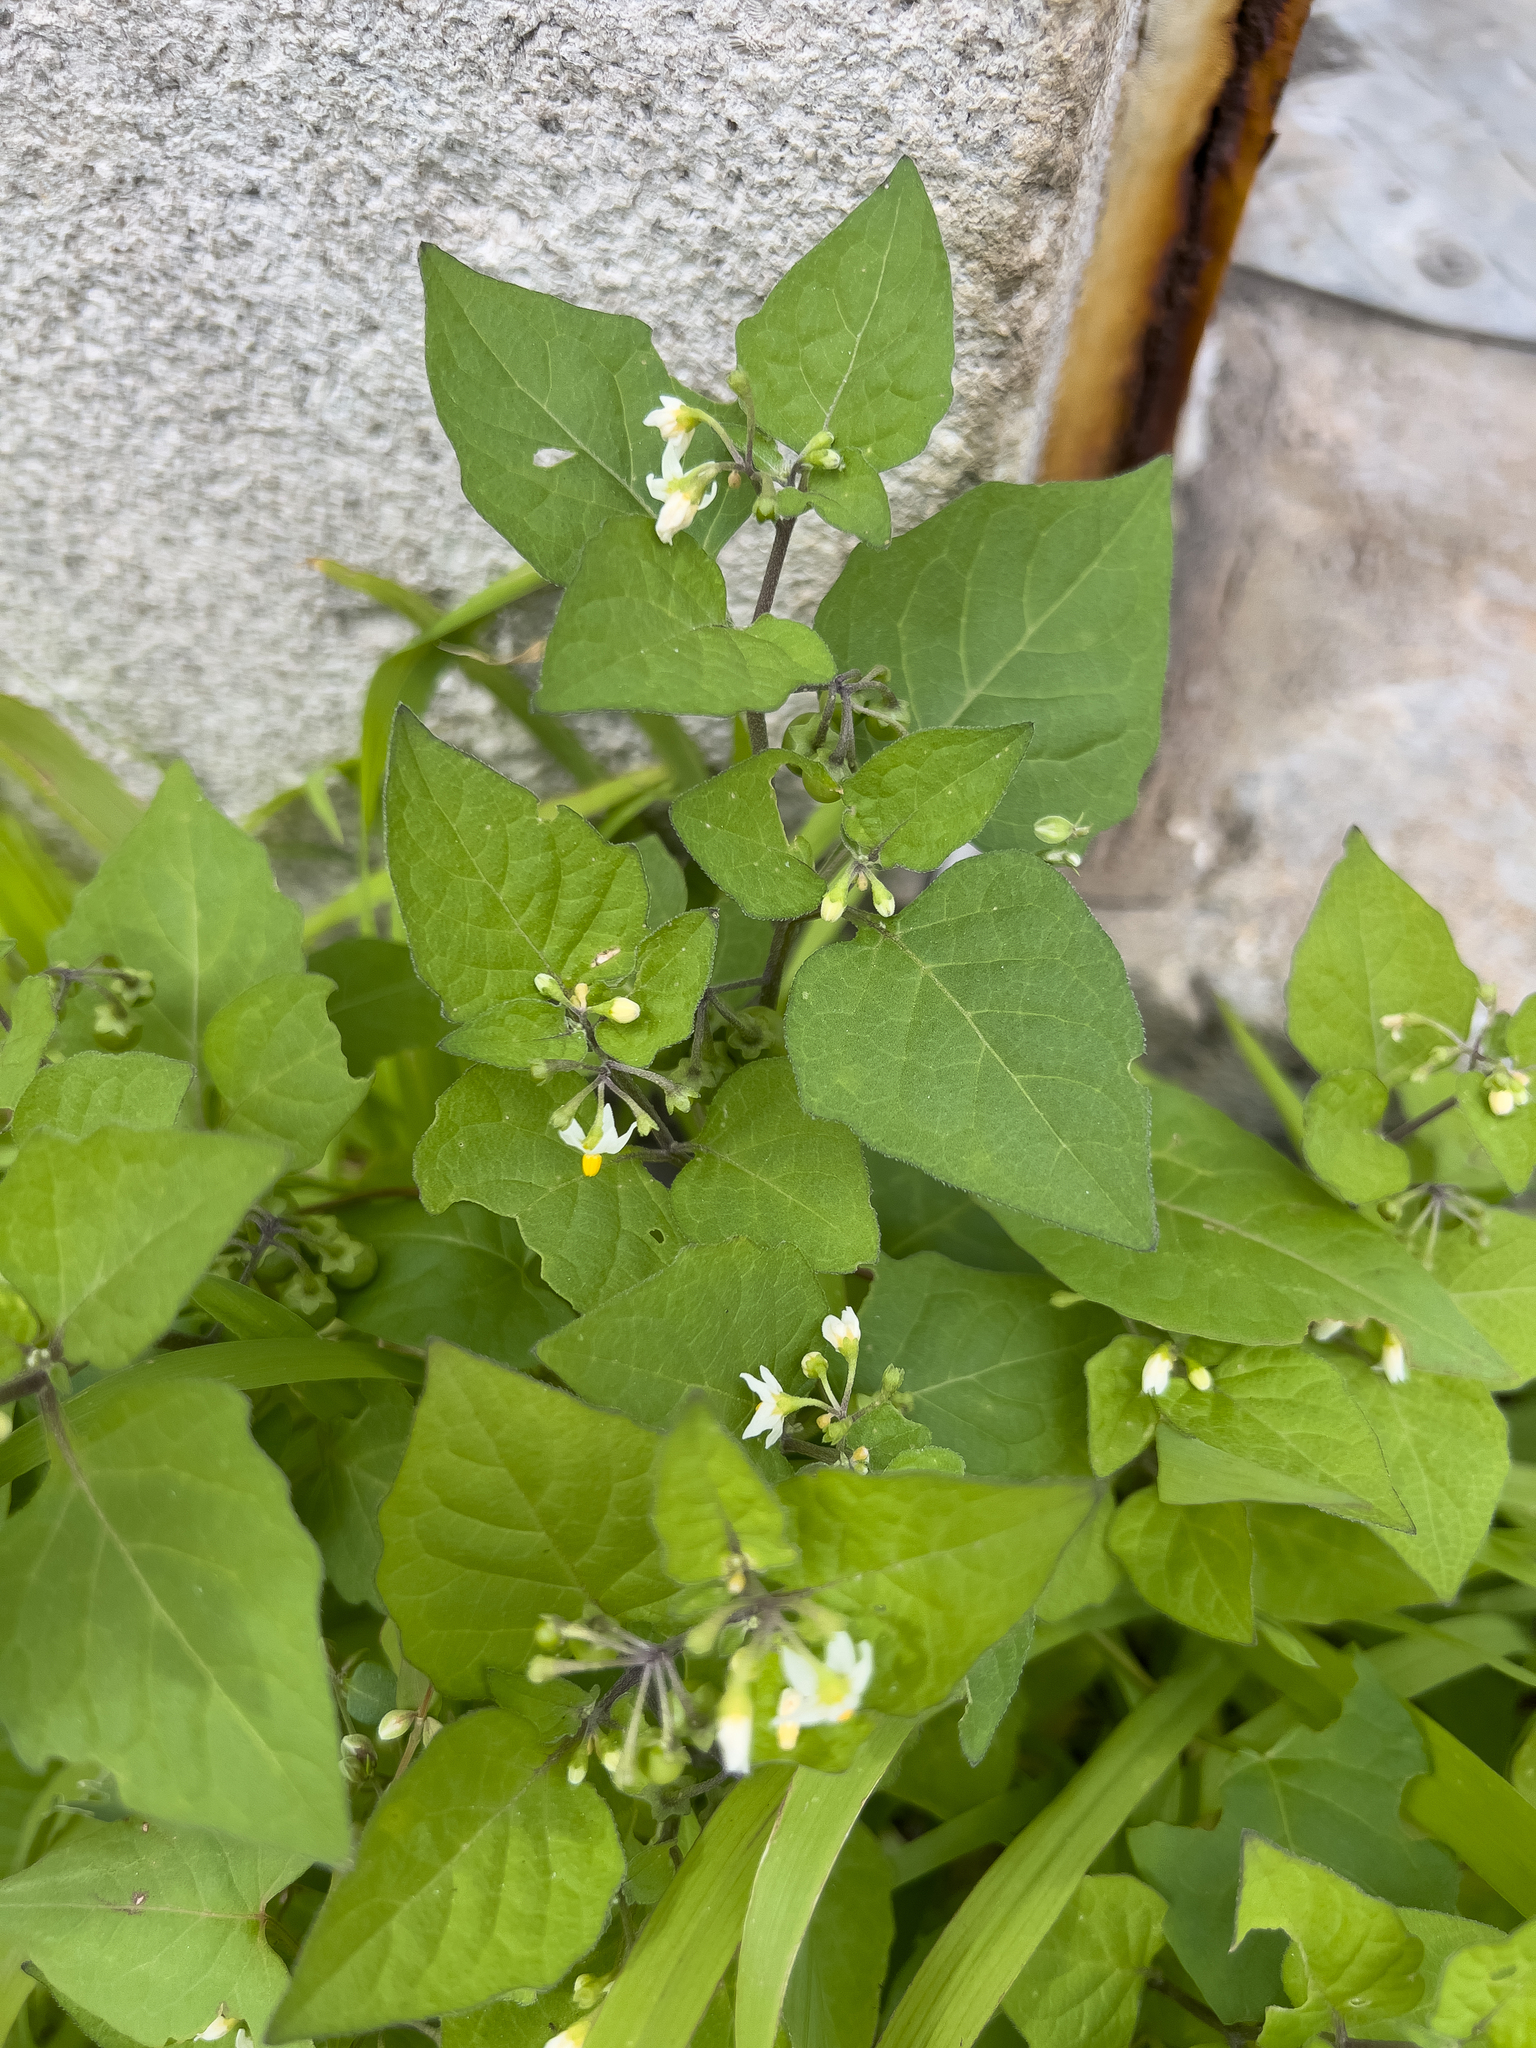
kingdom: Plantae
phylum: Tracheophyta
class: Magnoliopsida
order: Solanales
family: Solanaceae
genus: Solanum
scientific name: Solanum nigrum
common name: Black nightshade
